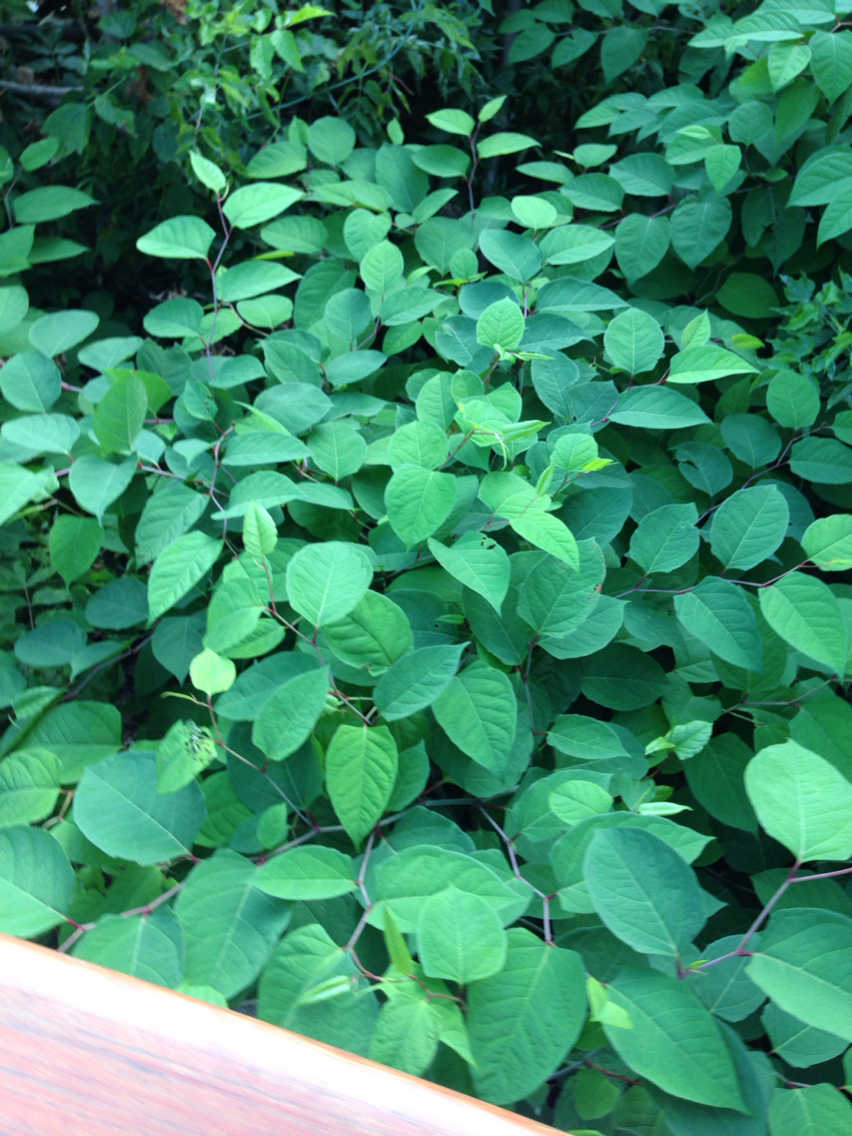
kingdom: Plantae
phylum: Tracheophyta
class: Magnoliopsida
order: Caryophyllales
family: Polygonaceae
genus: Reynoutria
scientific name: Reynoutria japonica
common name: Japanese knotweed
